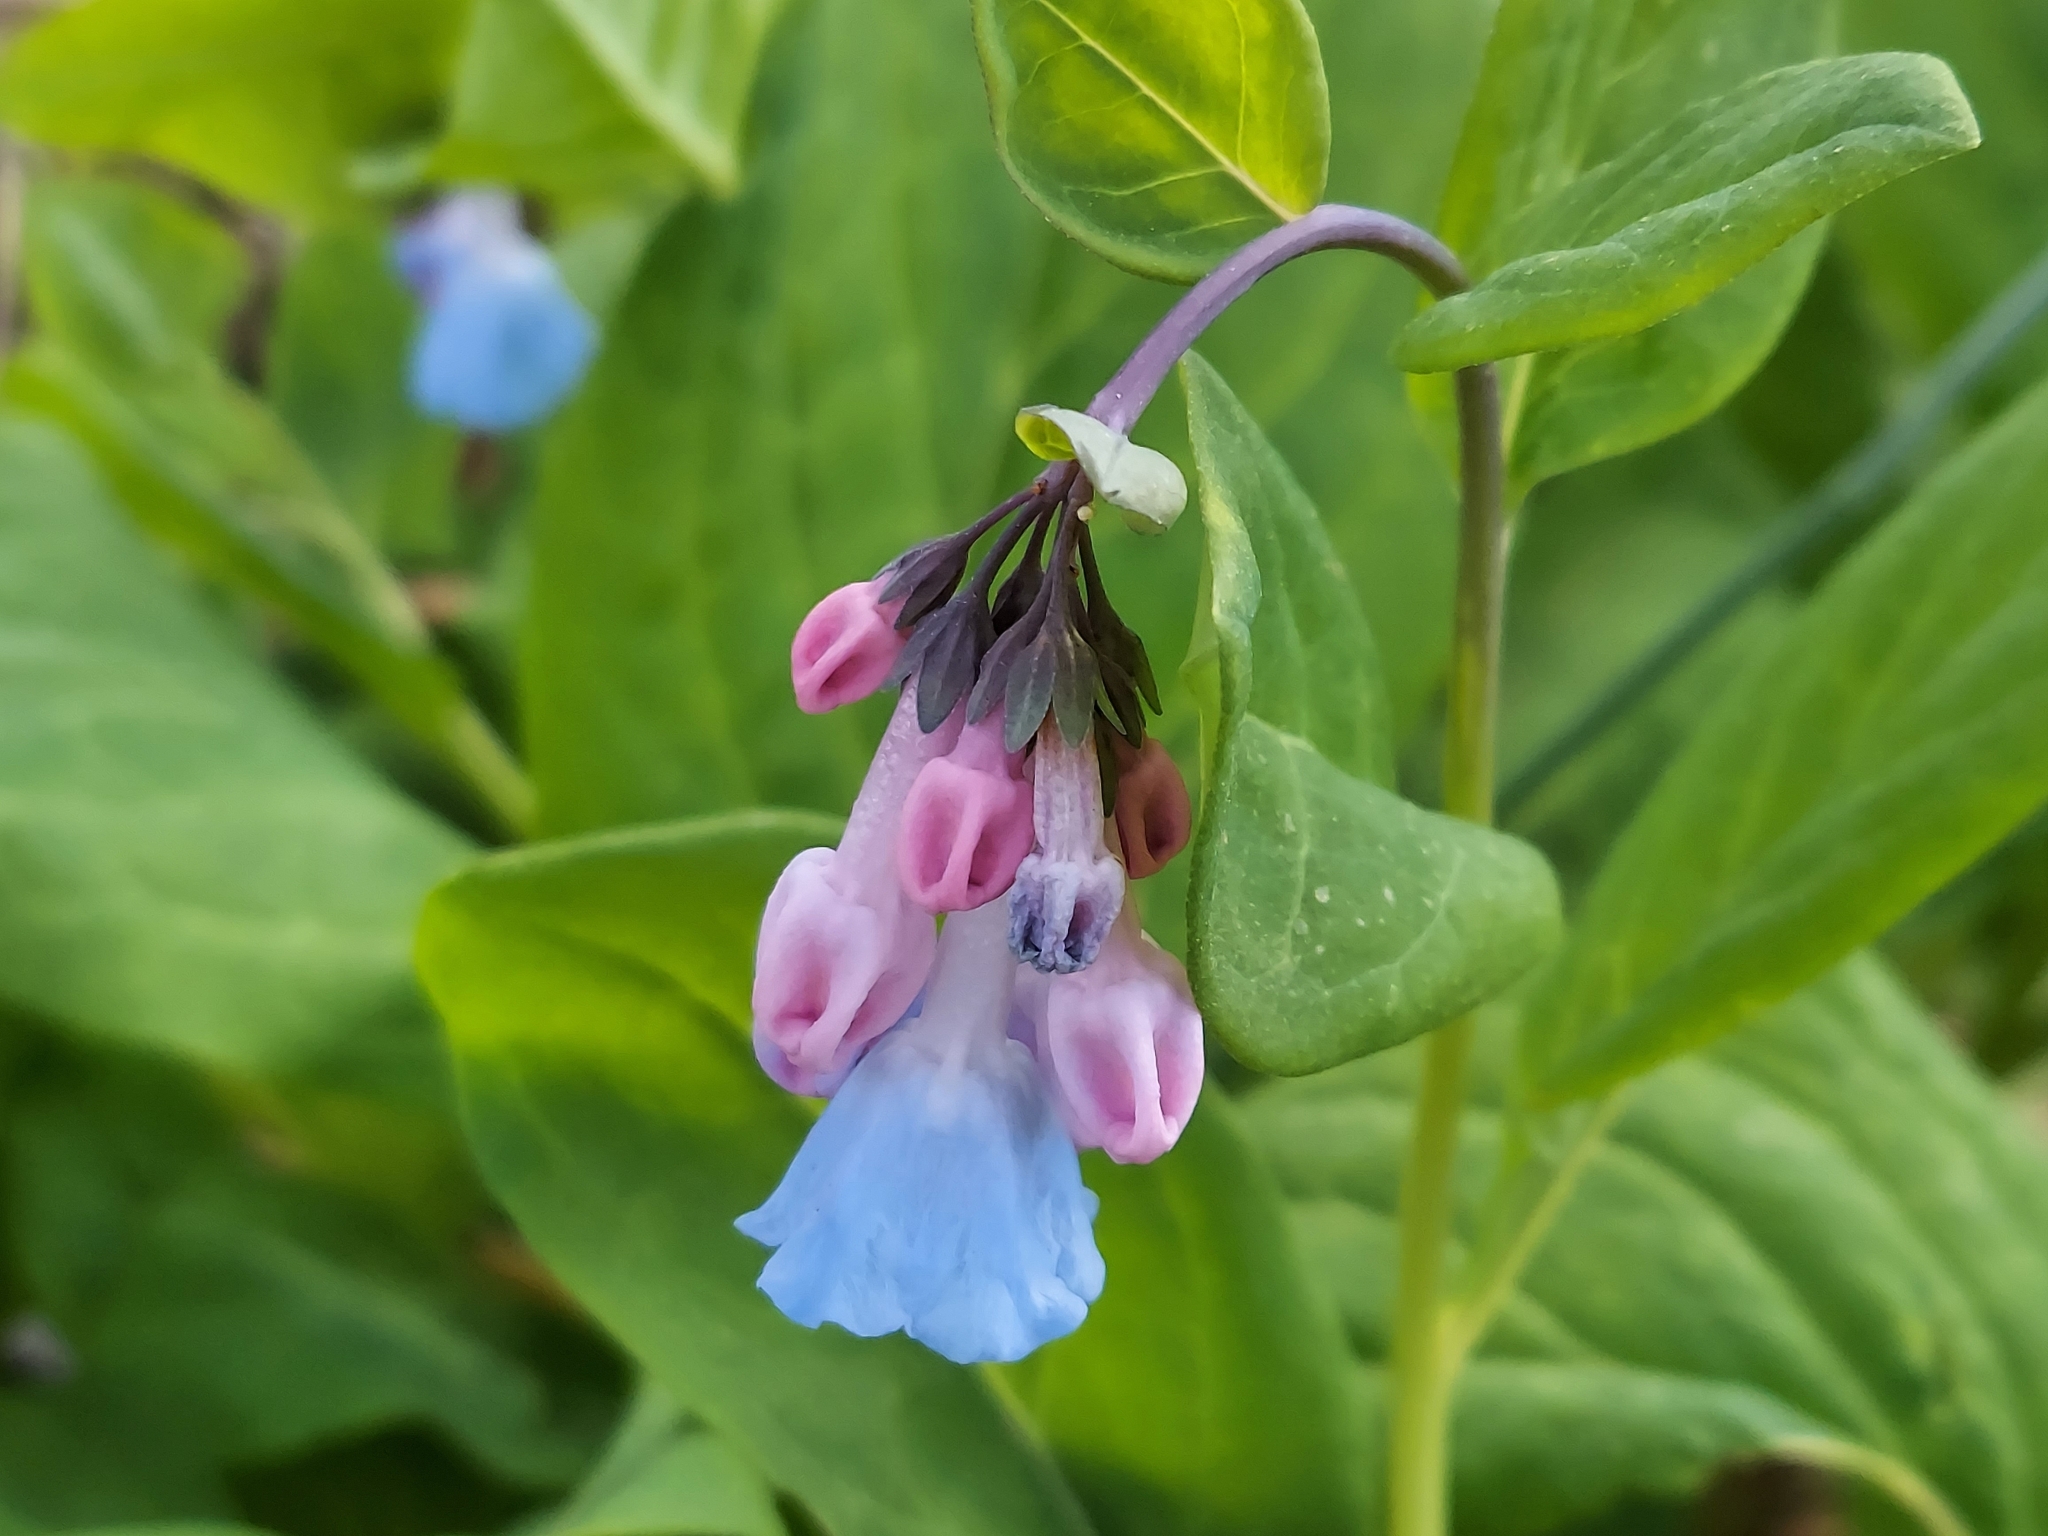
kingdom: Plantae
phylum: Tracheophyta
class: Magnoliopsida
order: Boraginales
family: Boraginaceae
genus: Mertensia
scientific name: Mertensia virginica
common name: Virginia bluebells
